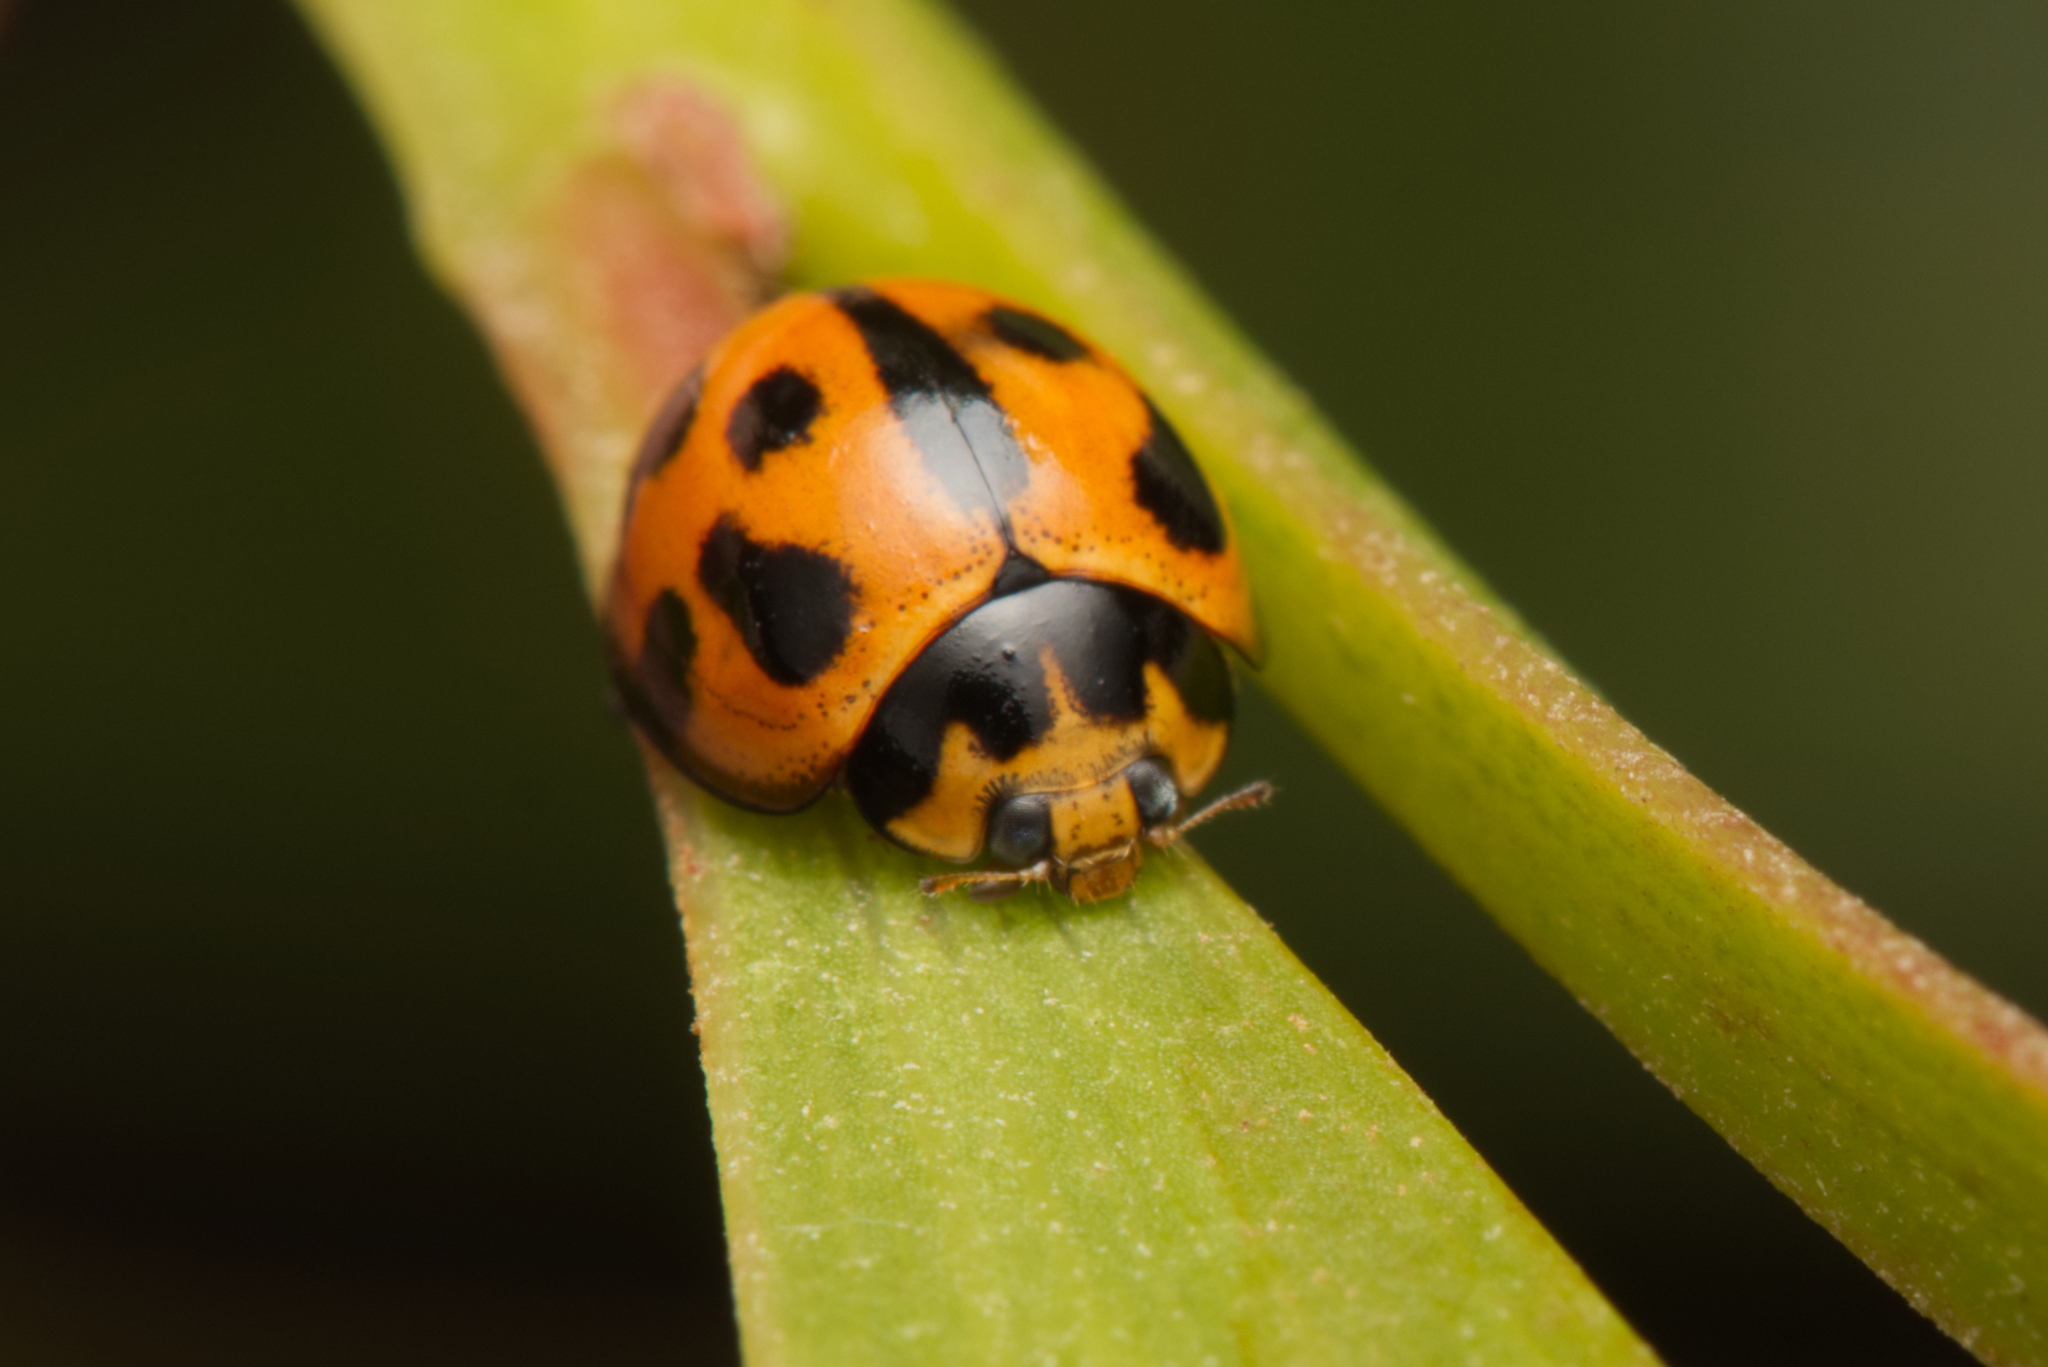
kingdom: Animalia
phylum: Arthropoda
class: Insecta
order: Coleoptera
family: Coccinellidae
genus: Coelophora
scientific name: Coelophora inaequalis
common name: Common australian lady beetle
